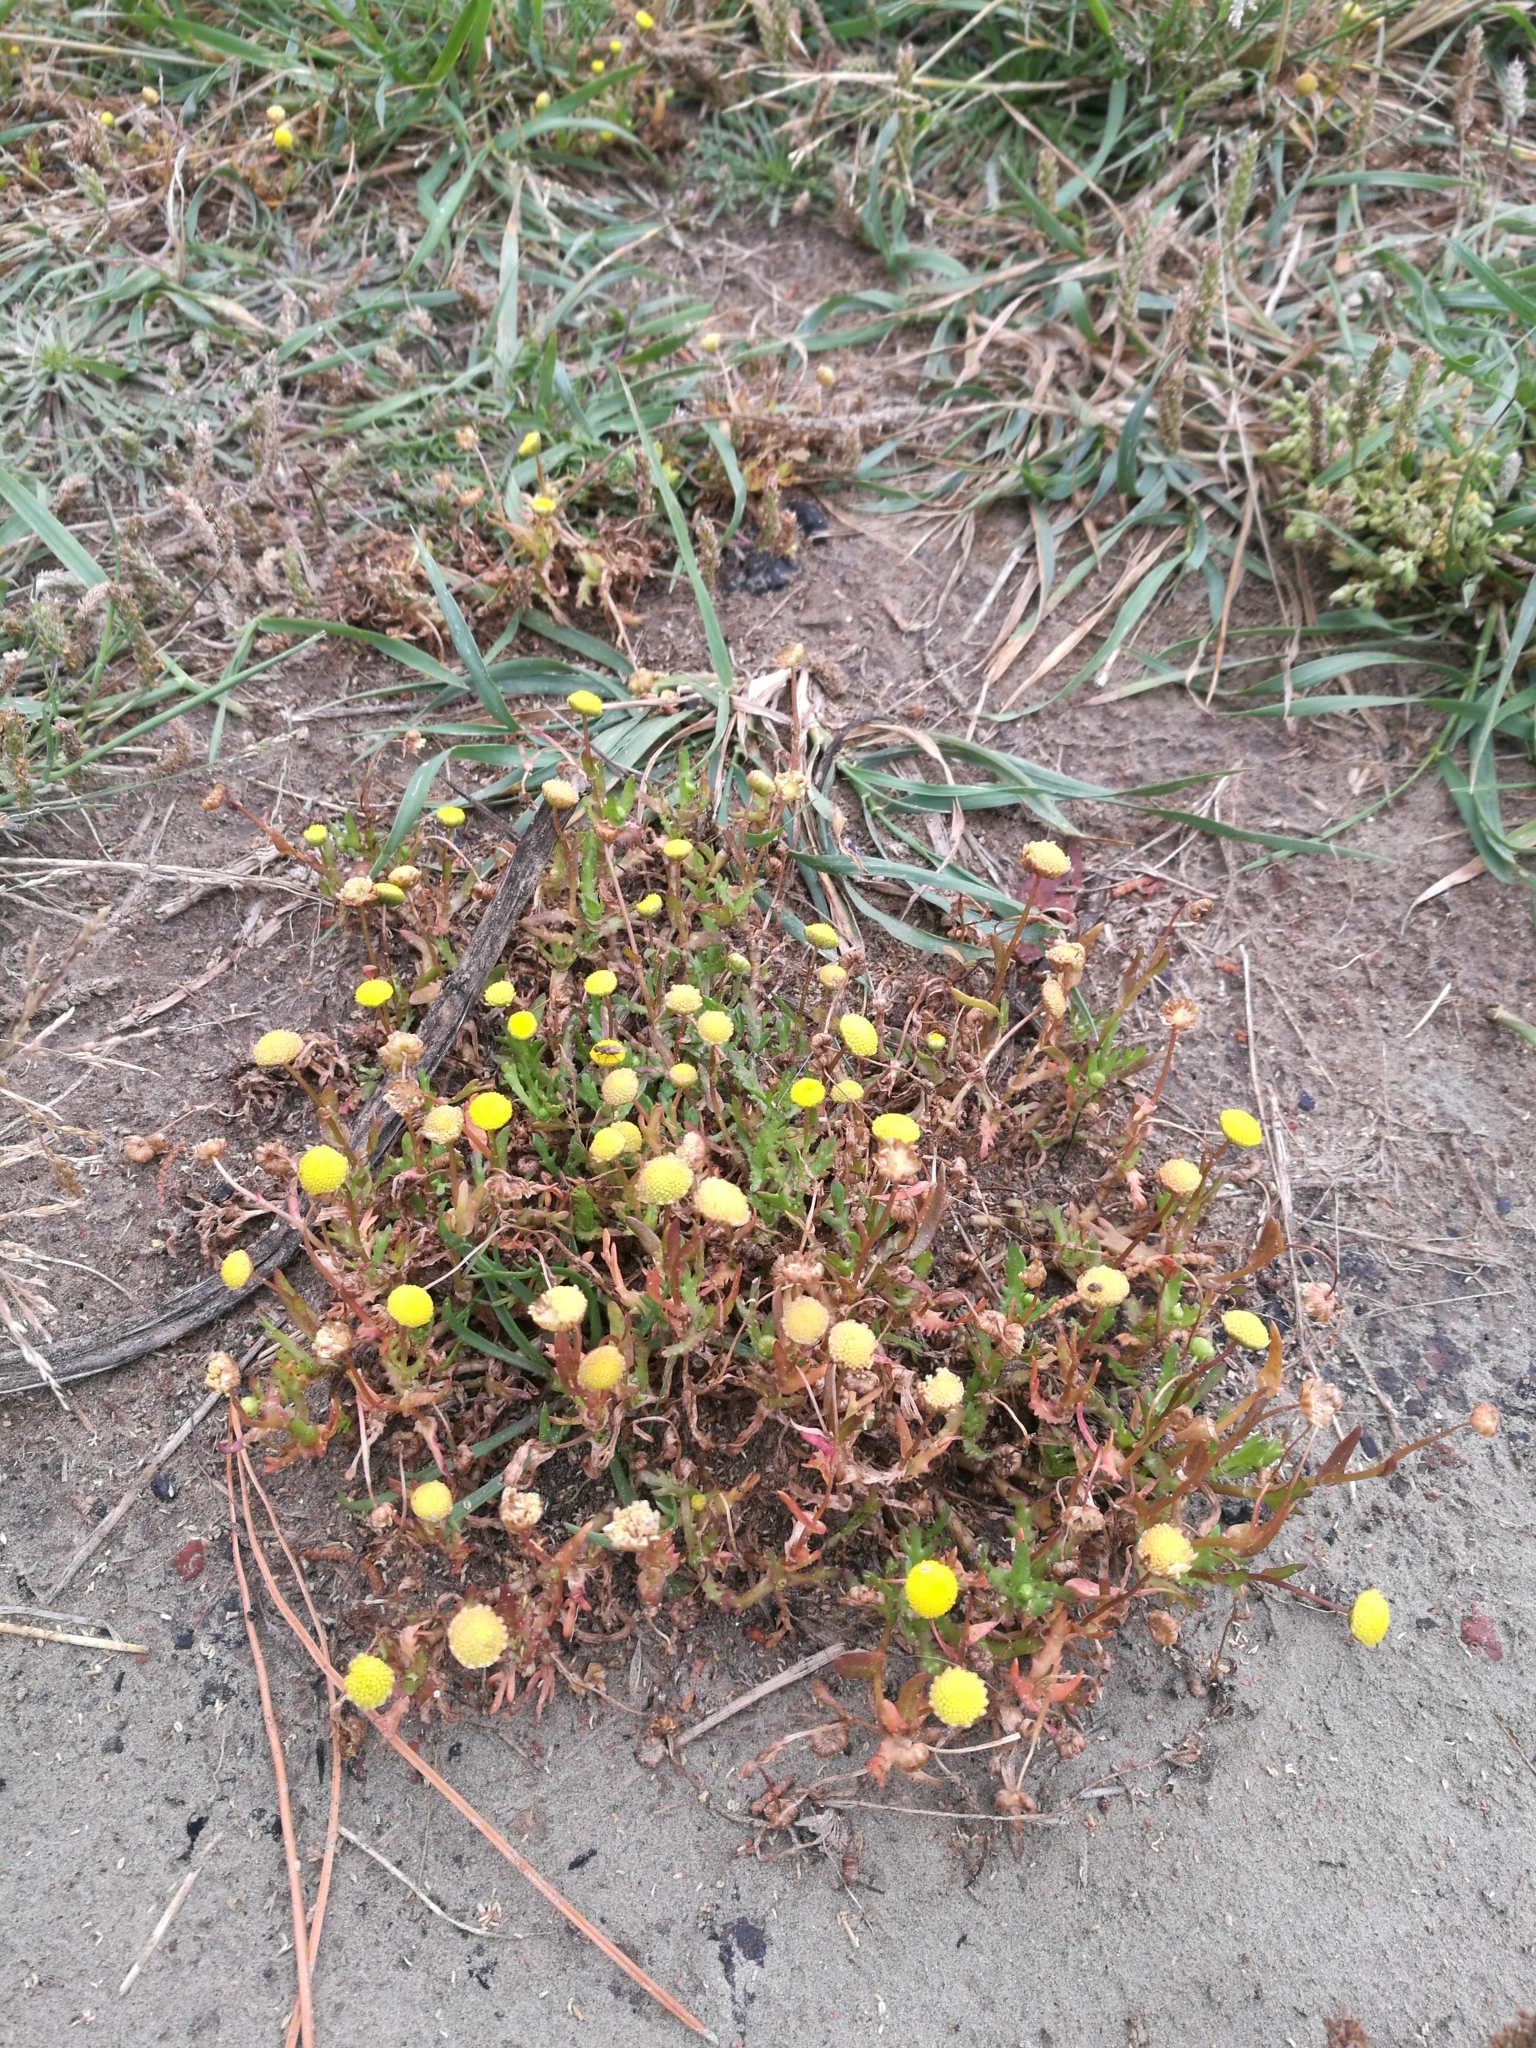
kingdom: Plantae
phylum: Tracheophyta
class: Magnoliopsida
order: Asterales
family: Asteraceae
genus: Cotula
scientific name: Cotula coronopifolia
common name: Buttonweed
